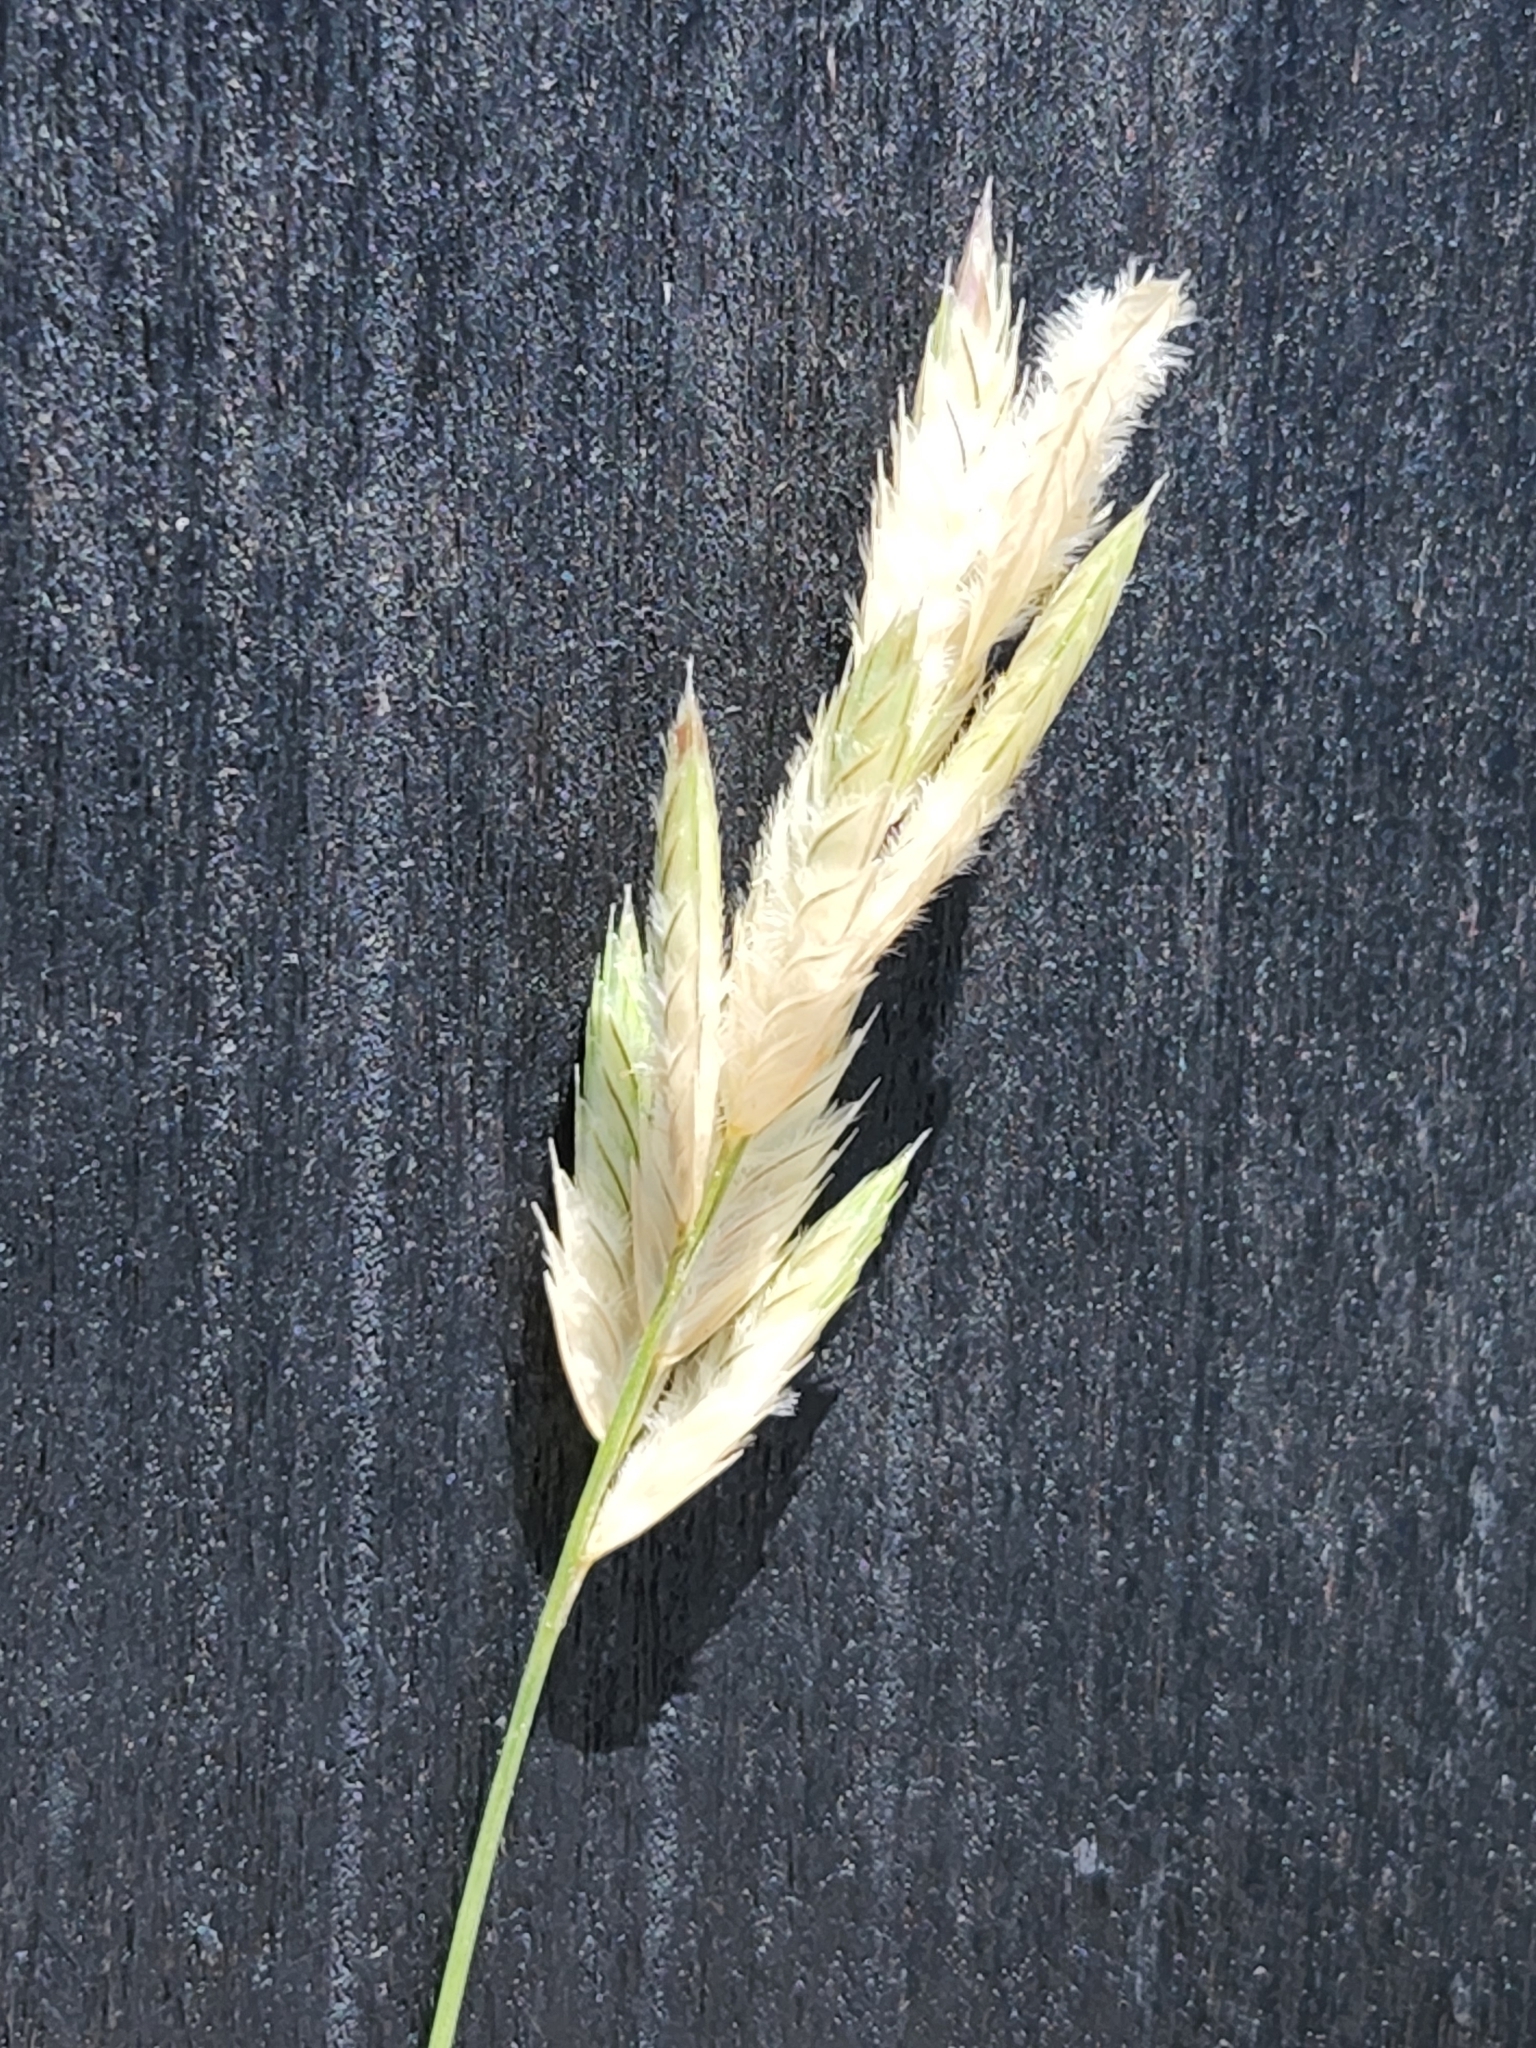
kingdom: Plantae
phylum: Tracheophyta
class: Liliopsida
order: Poales
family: Poaceae
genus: Erioneuron
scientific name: Erioneuron pilosum
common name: Hairy woolly grass
